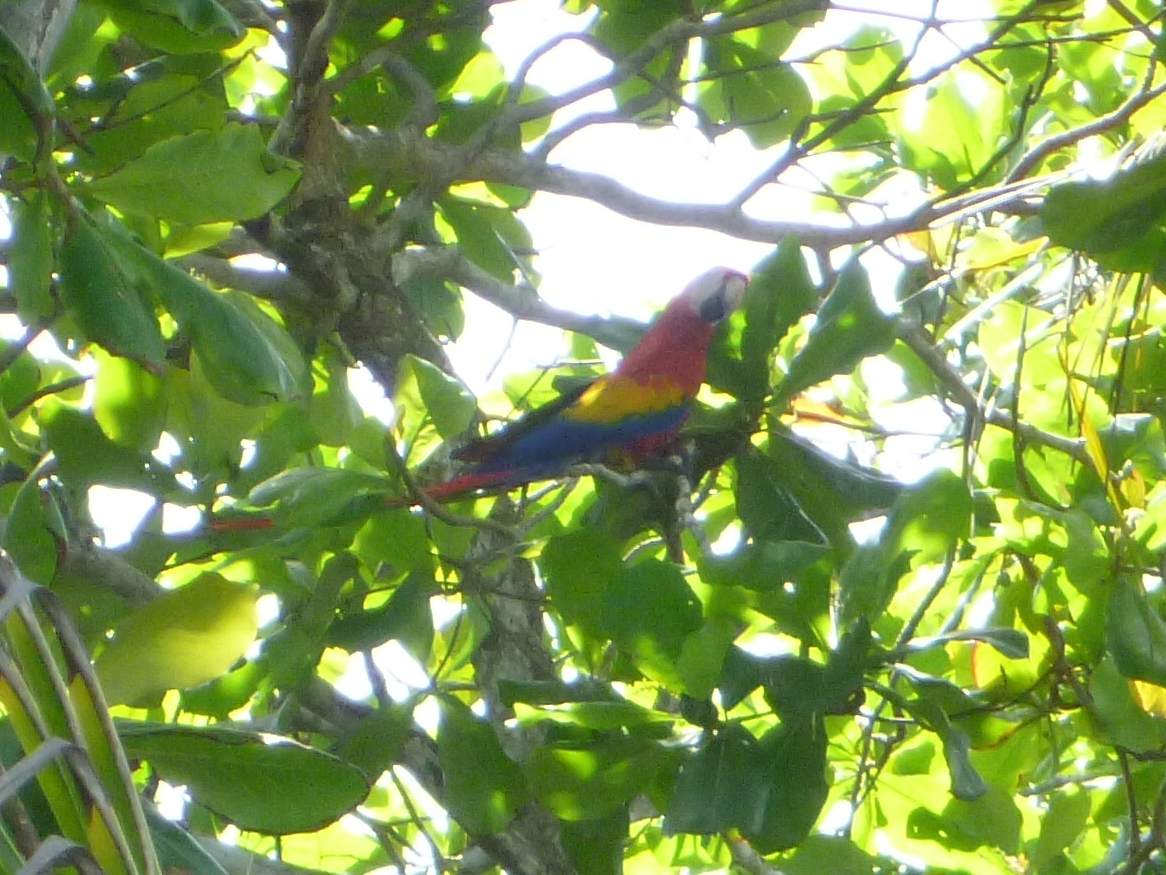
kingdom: Animalia
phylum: Chordata
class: Aves
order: Psittaciformes
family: Psittacidae
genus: Ara
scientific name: Ara macao
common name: Scarlet macaw
